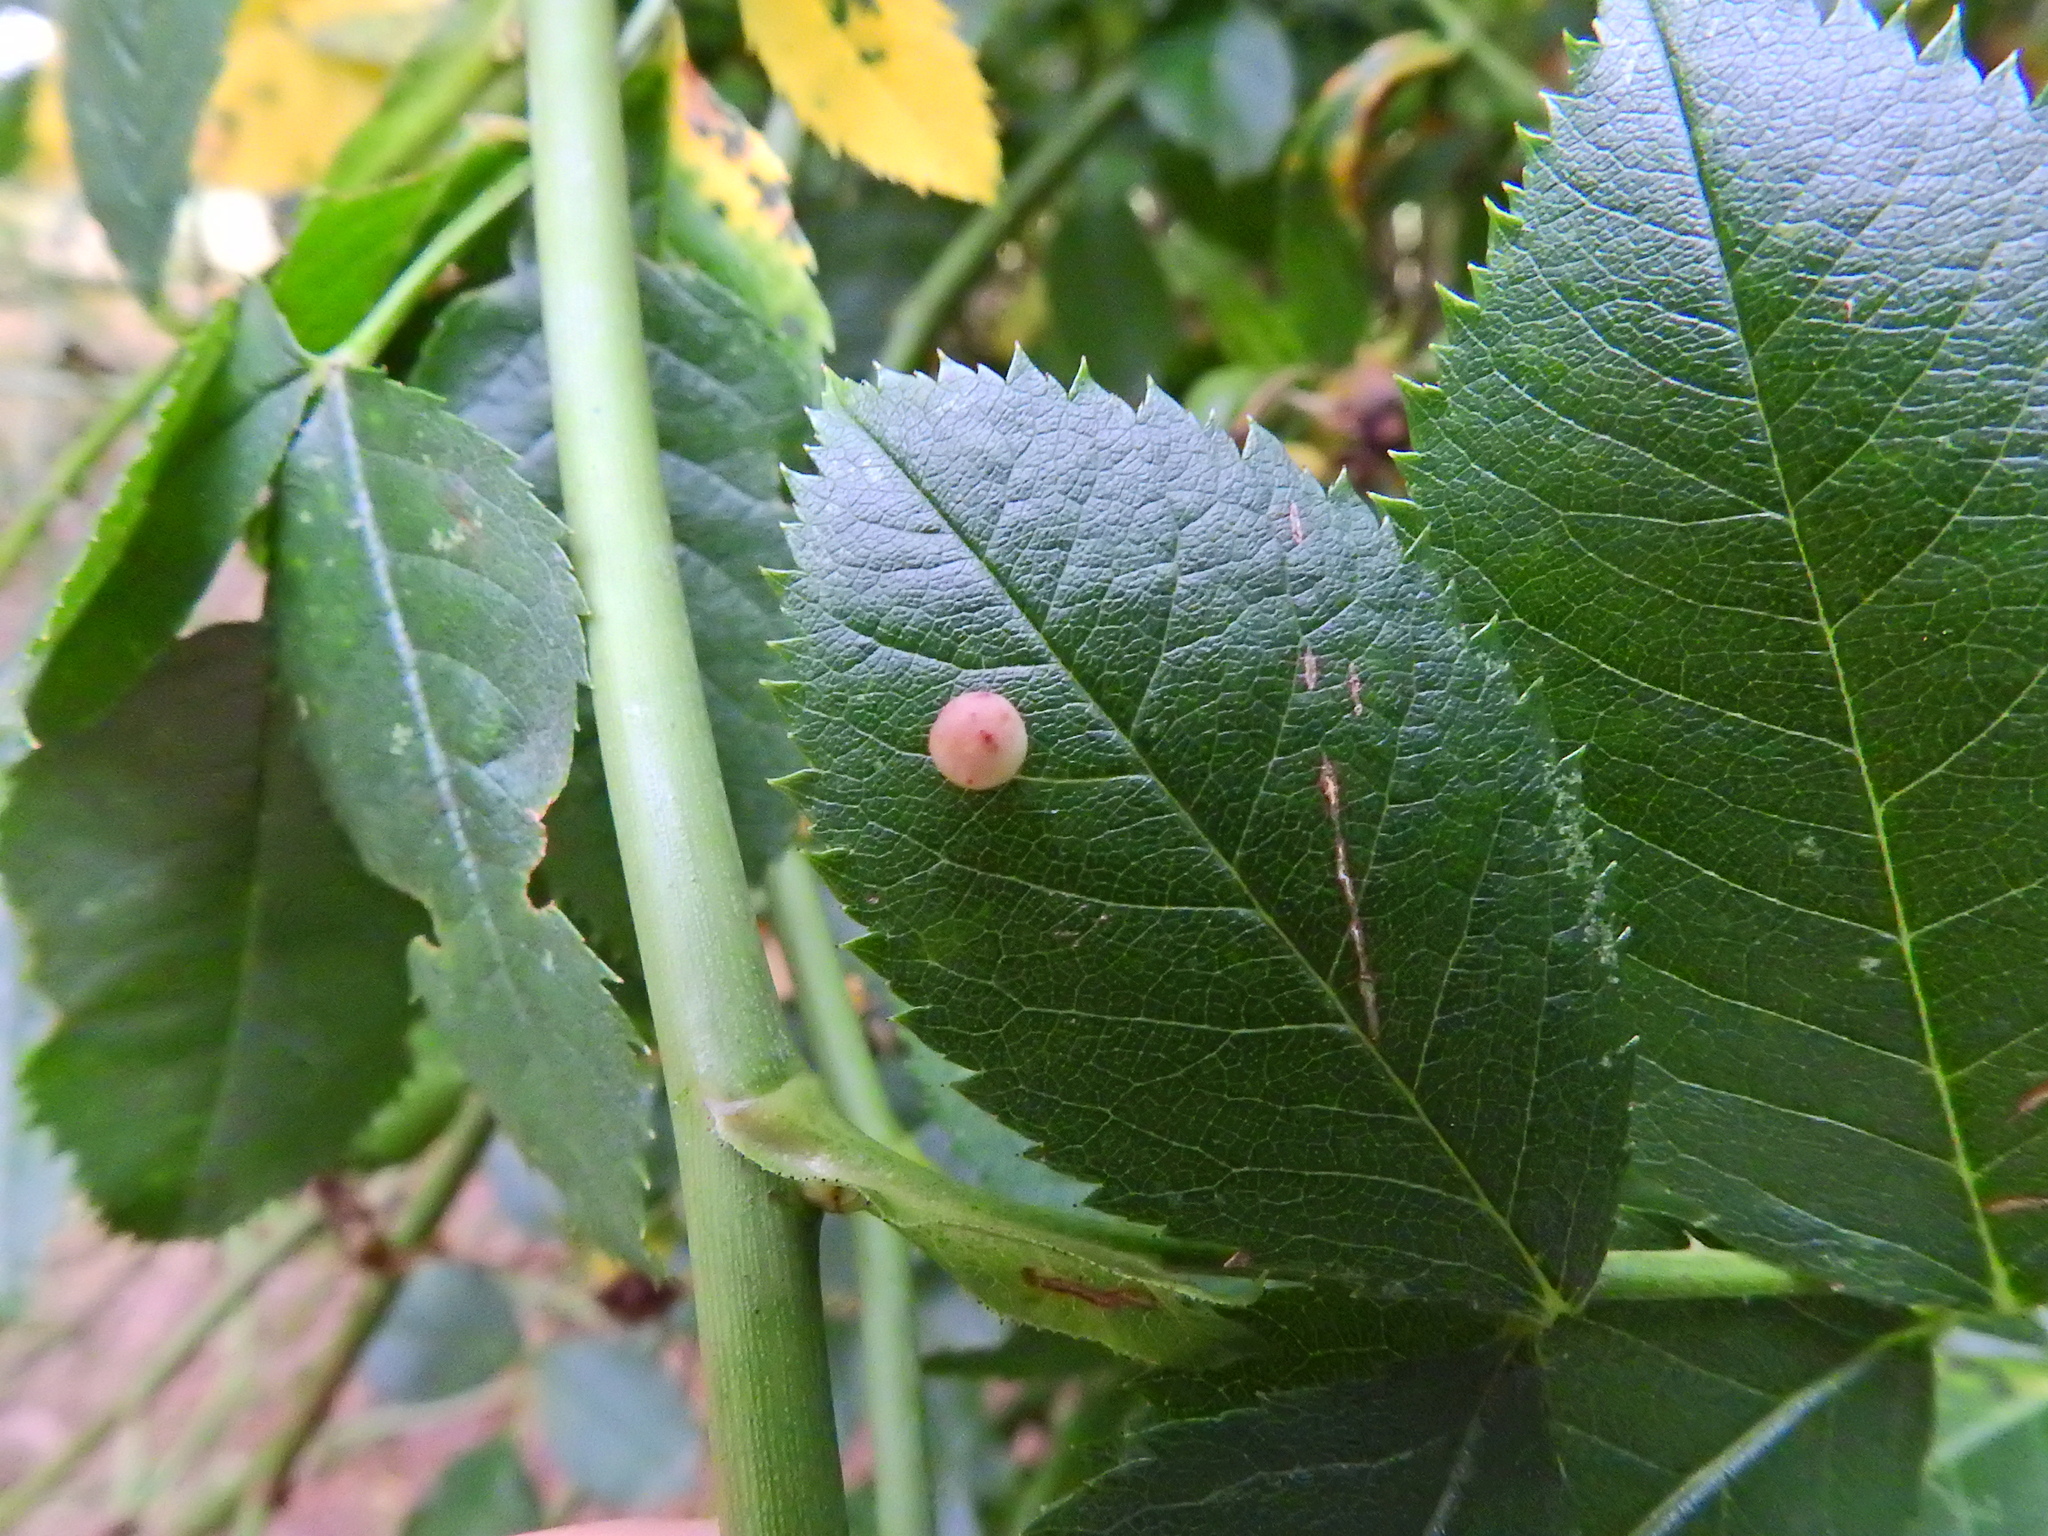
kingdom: Animalia
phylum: Arthropoda
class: Insecta
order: Hymenoptera
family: Cynipidae
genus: Diplolepis
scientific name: Diplolepis
